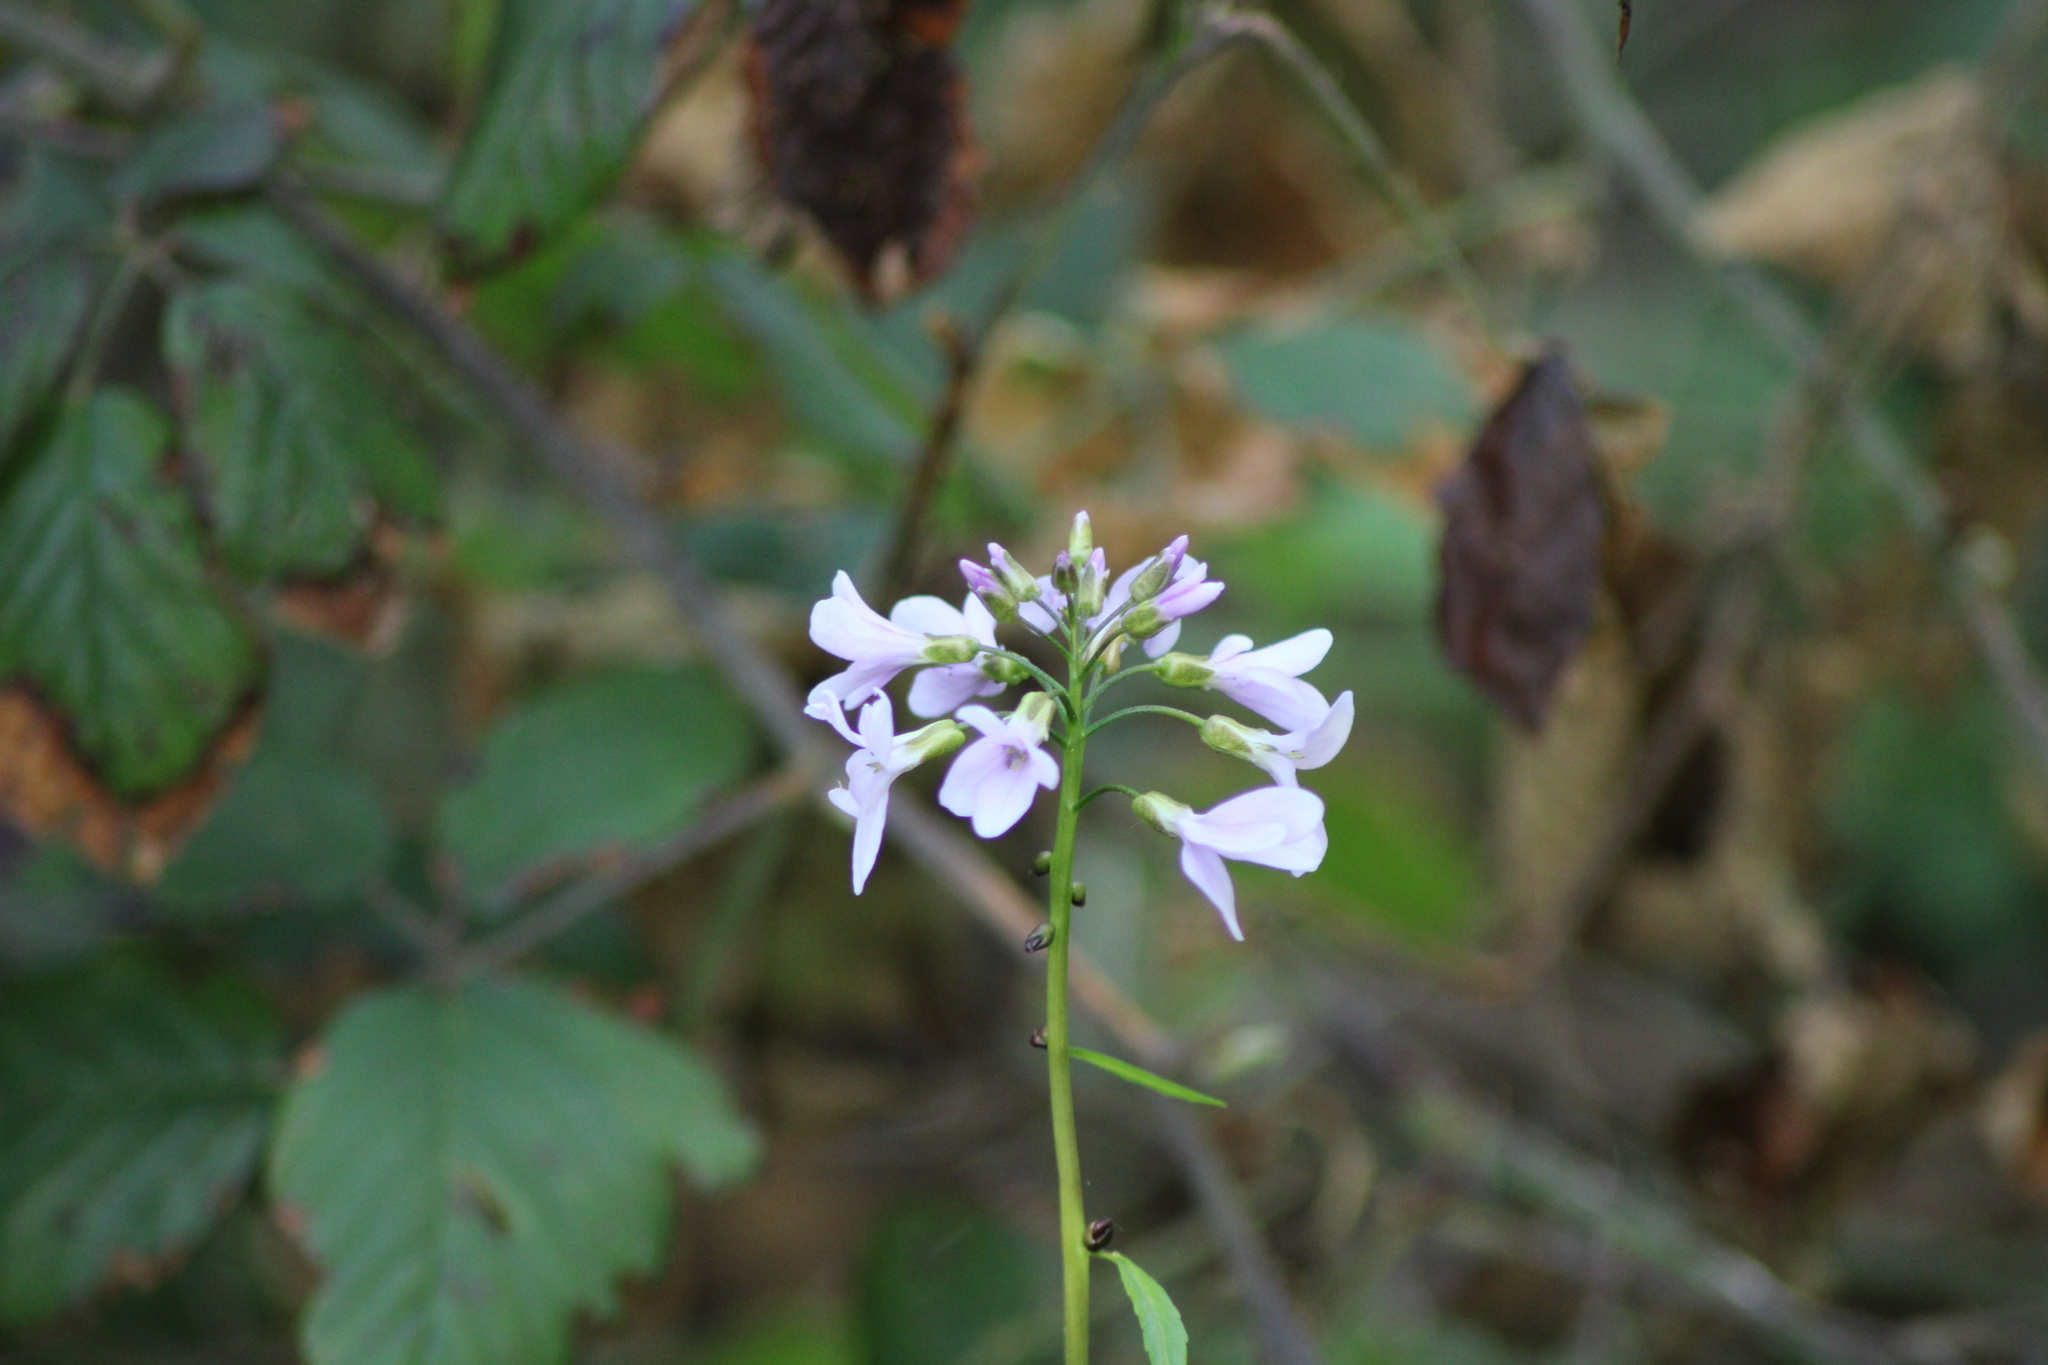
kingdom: Plantae
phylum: Tracheophyta
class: Magnoliopsida
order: Brassicales
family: Brassicaceae
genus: Cardamine
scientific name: Cardamine bulbifera
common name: Coralroot bittercress
